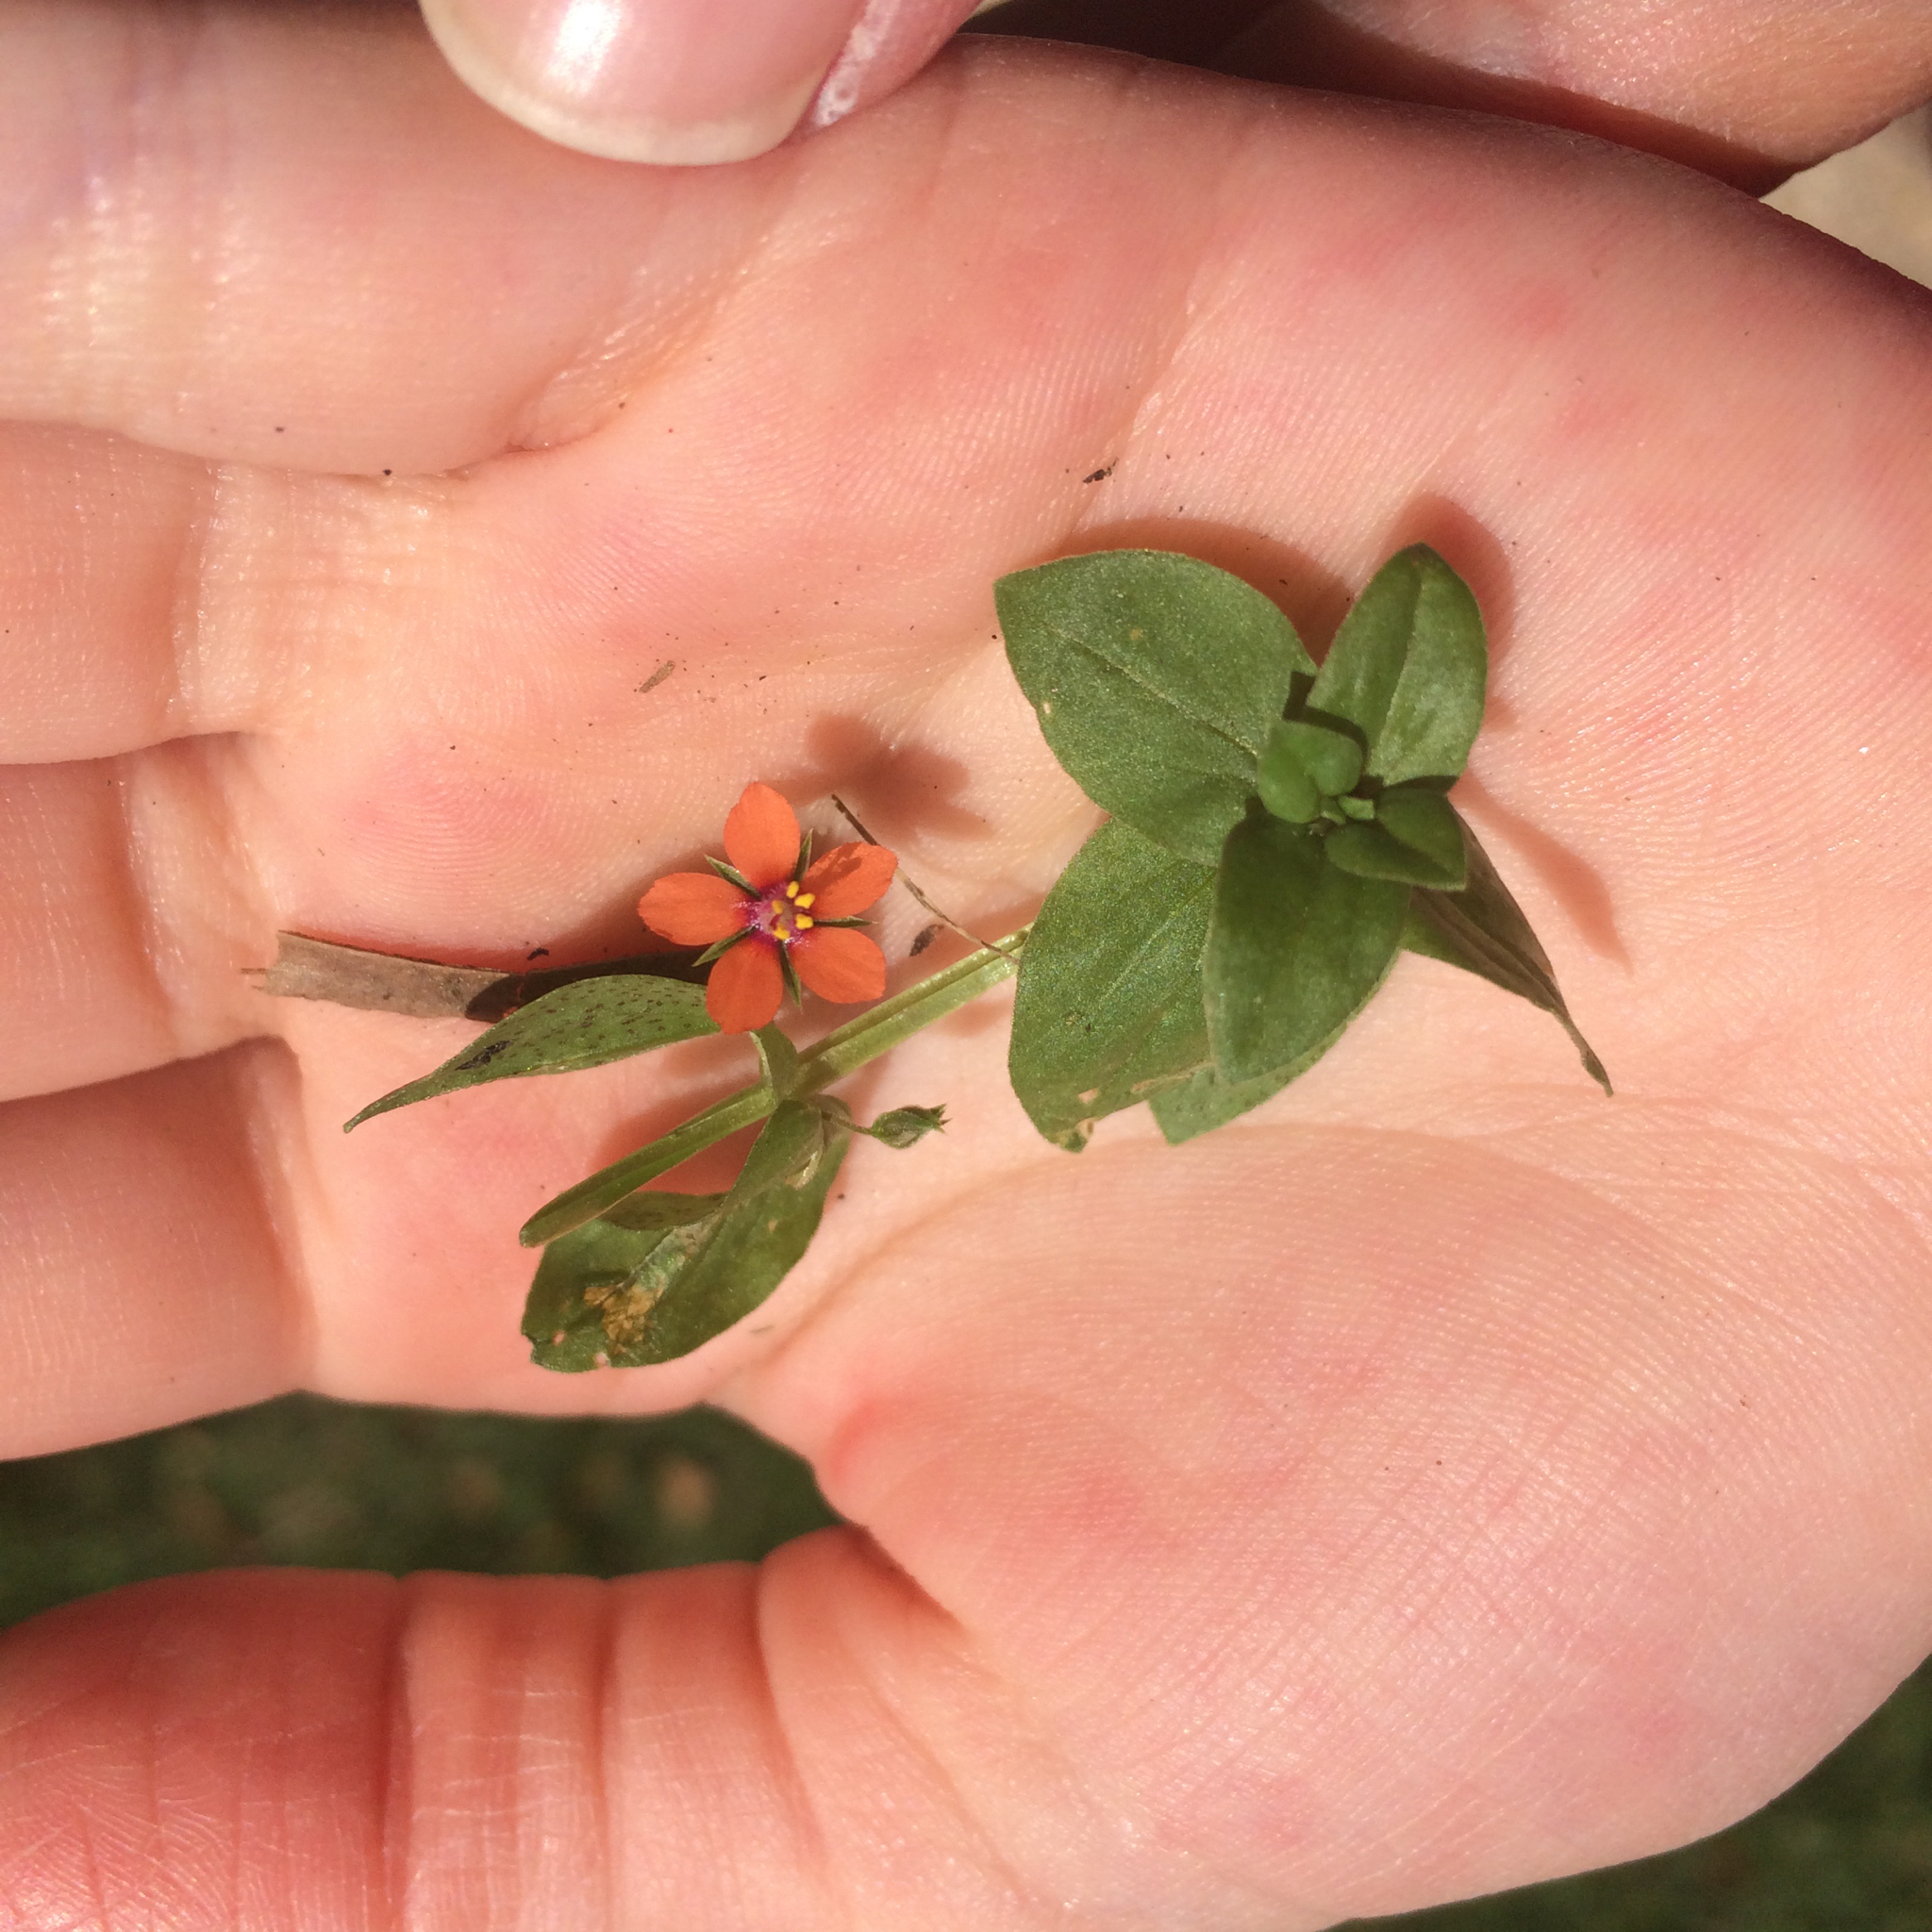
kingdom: Plantae
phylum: Tracheophyta
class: Magnoliopsida
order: Ericales
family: Primulaceae
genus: Lysimachia
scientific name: Lysimachia arvensis
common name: Scarlet pimpernel
